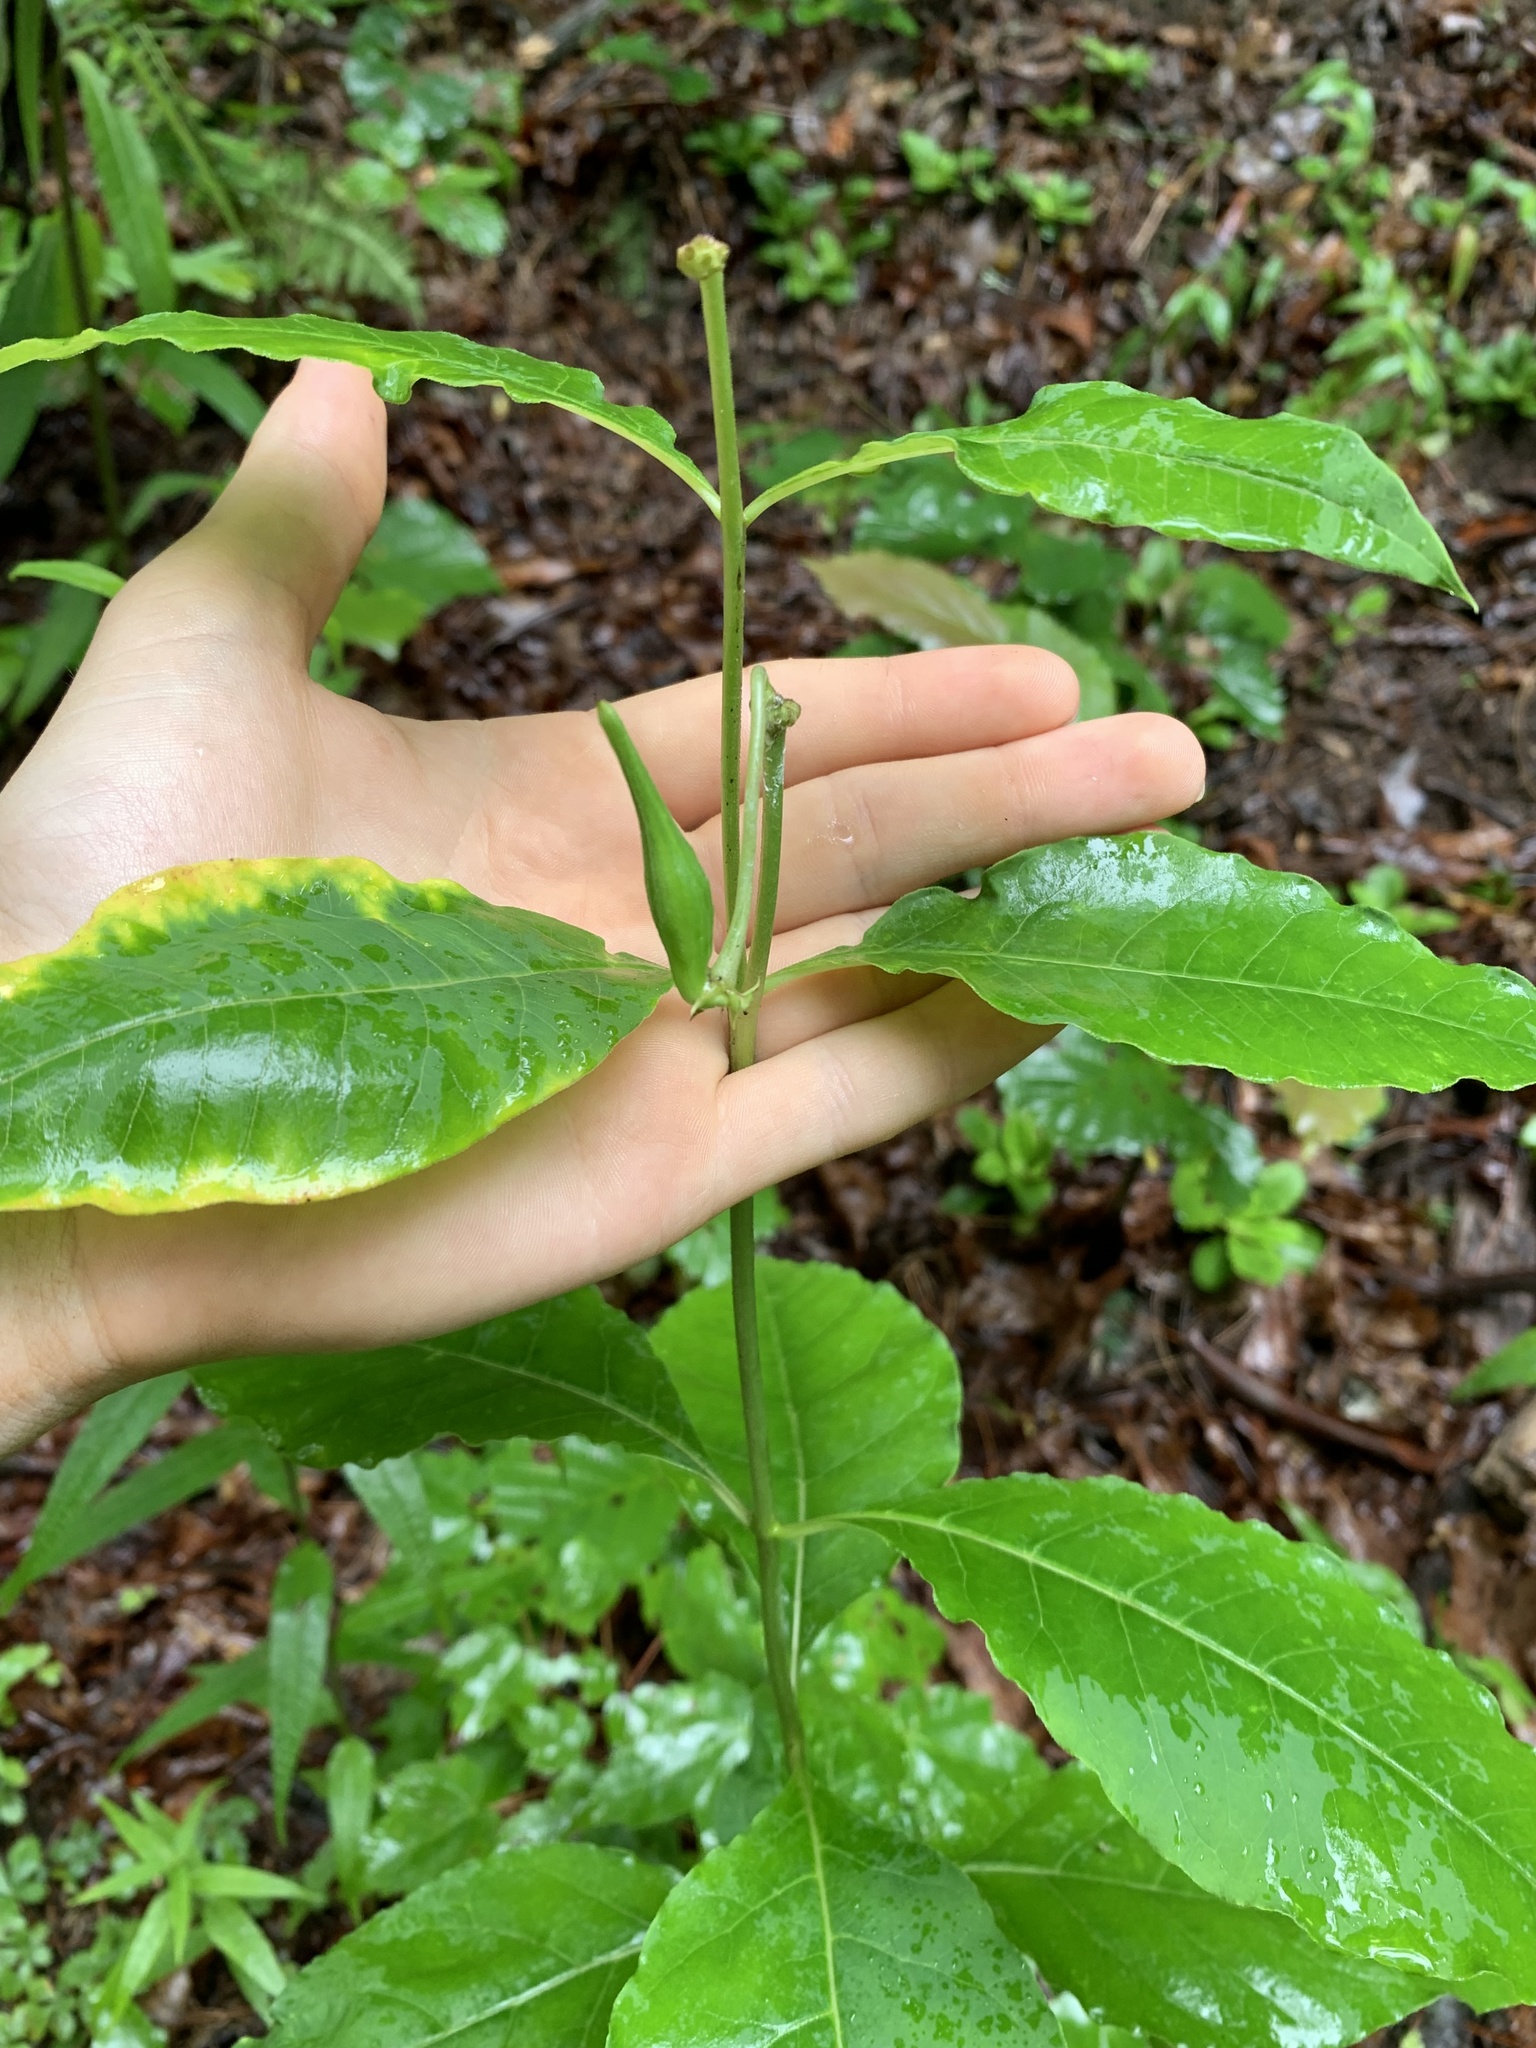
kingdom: Plantae
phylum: Tracheophyta
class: Magnoliopsida
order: Gentianales
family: Apocynaceae
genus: Asclepias
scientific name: Asclepias exaltata
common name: Poke milkweed
